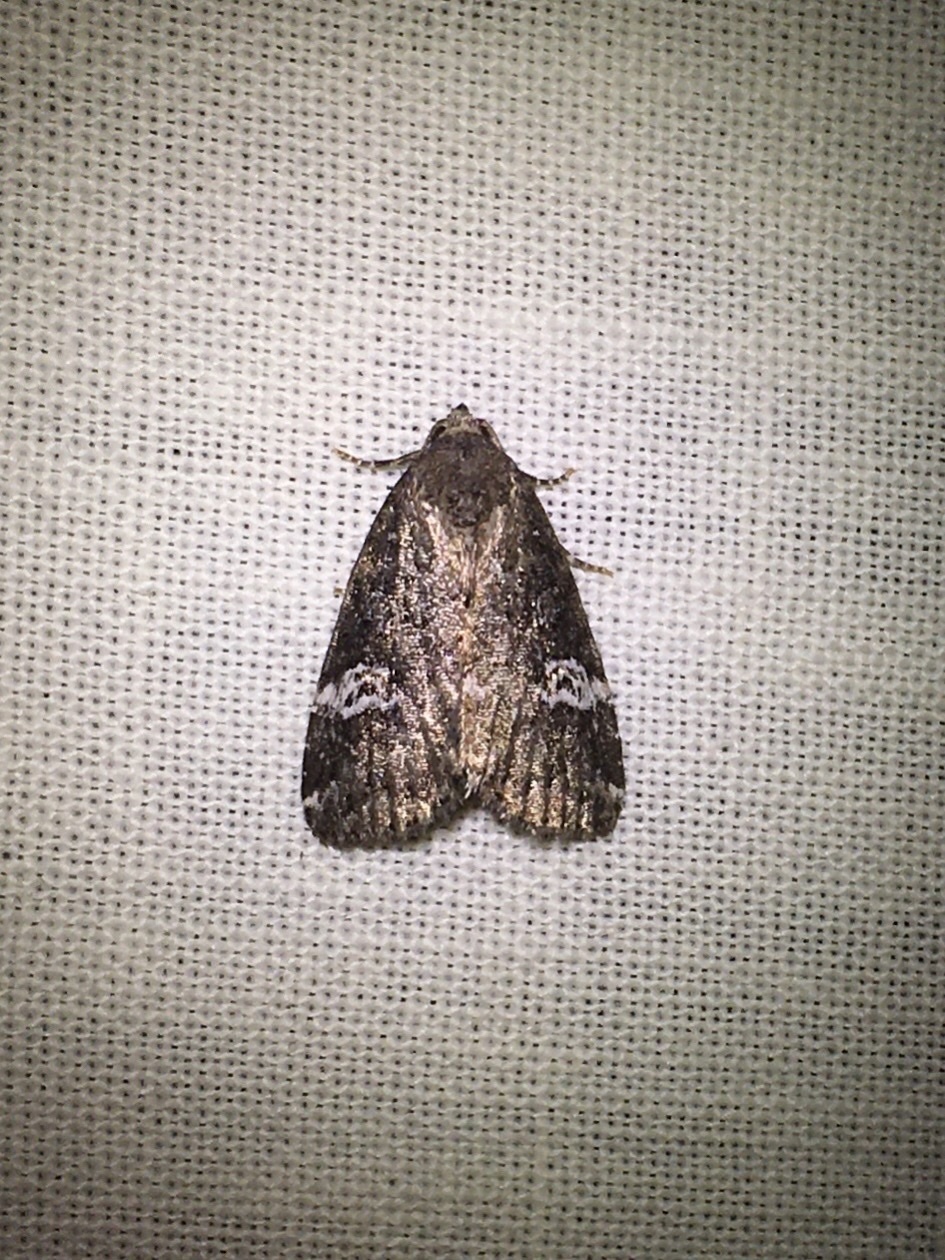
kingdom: Animalia
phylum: Arthropoda
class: Insecta
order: Lepidoptera
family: Noctuidae
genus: Anterastria
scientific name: Anterastria teratophora
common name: Gray marvel moth
